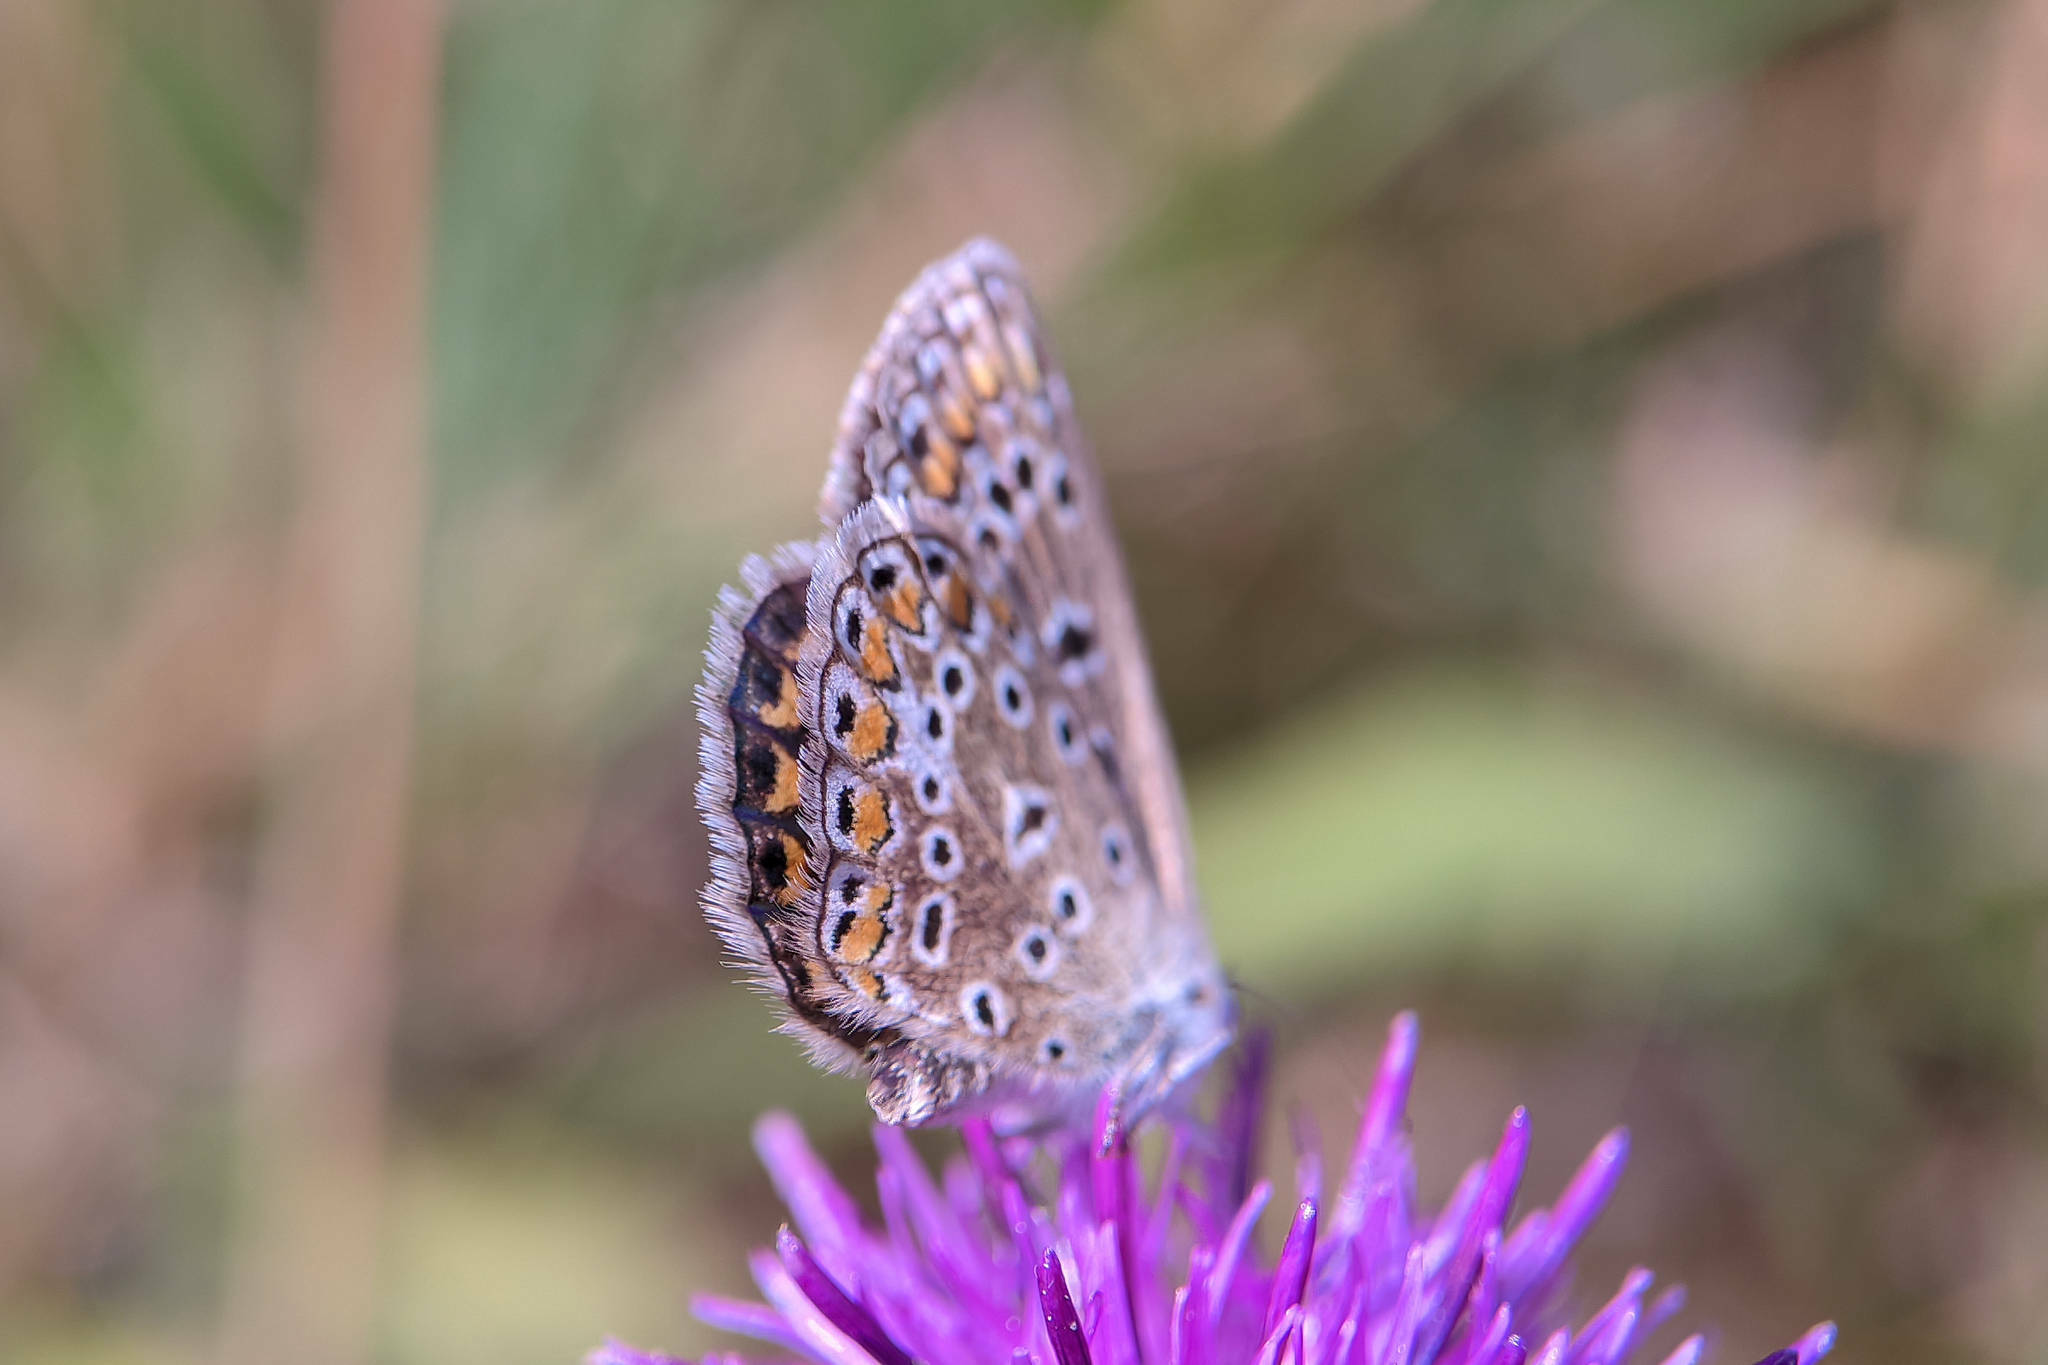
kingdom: Animalia
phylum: Arthropoda
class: Insecta
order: Lepidoptera
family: Lycaenidae
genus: Polyommatus
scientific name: Polyommatus icarus
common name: Common blue
